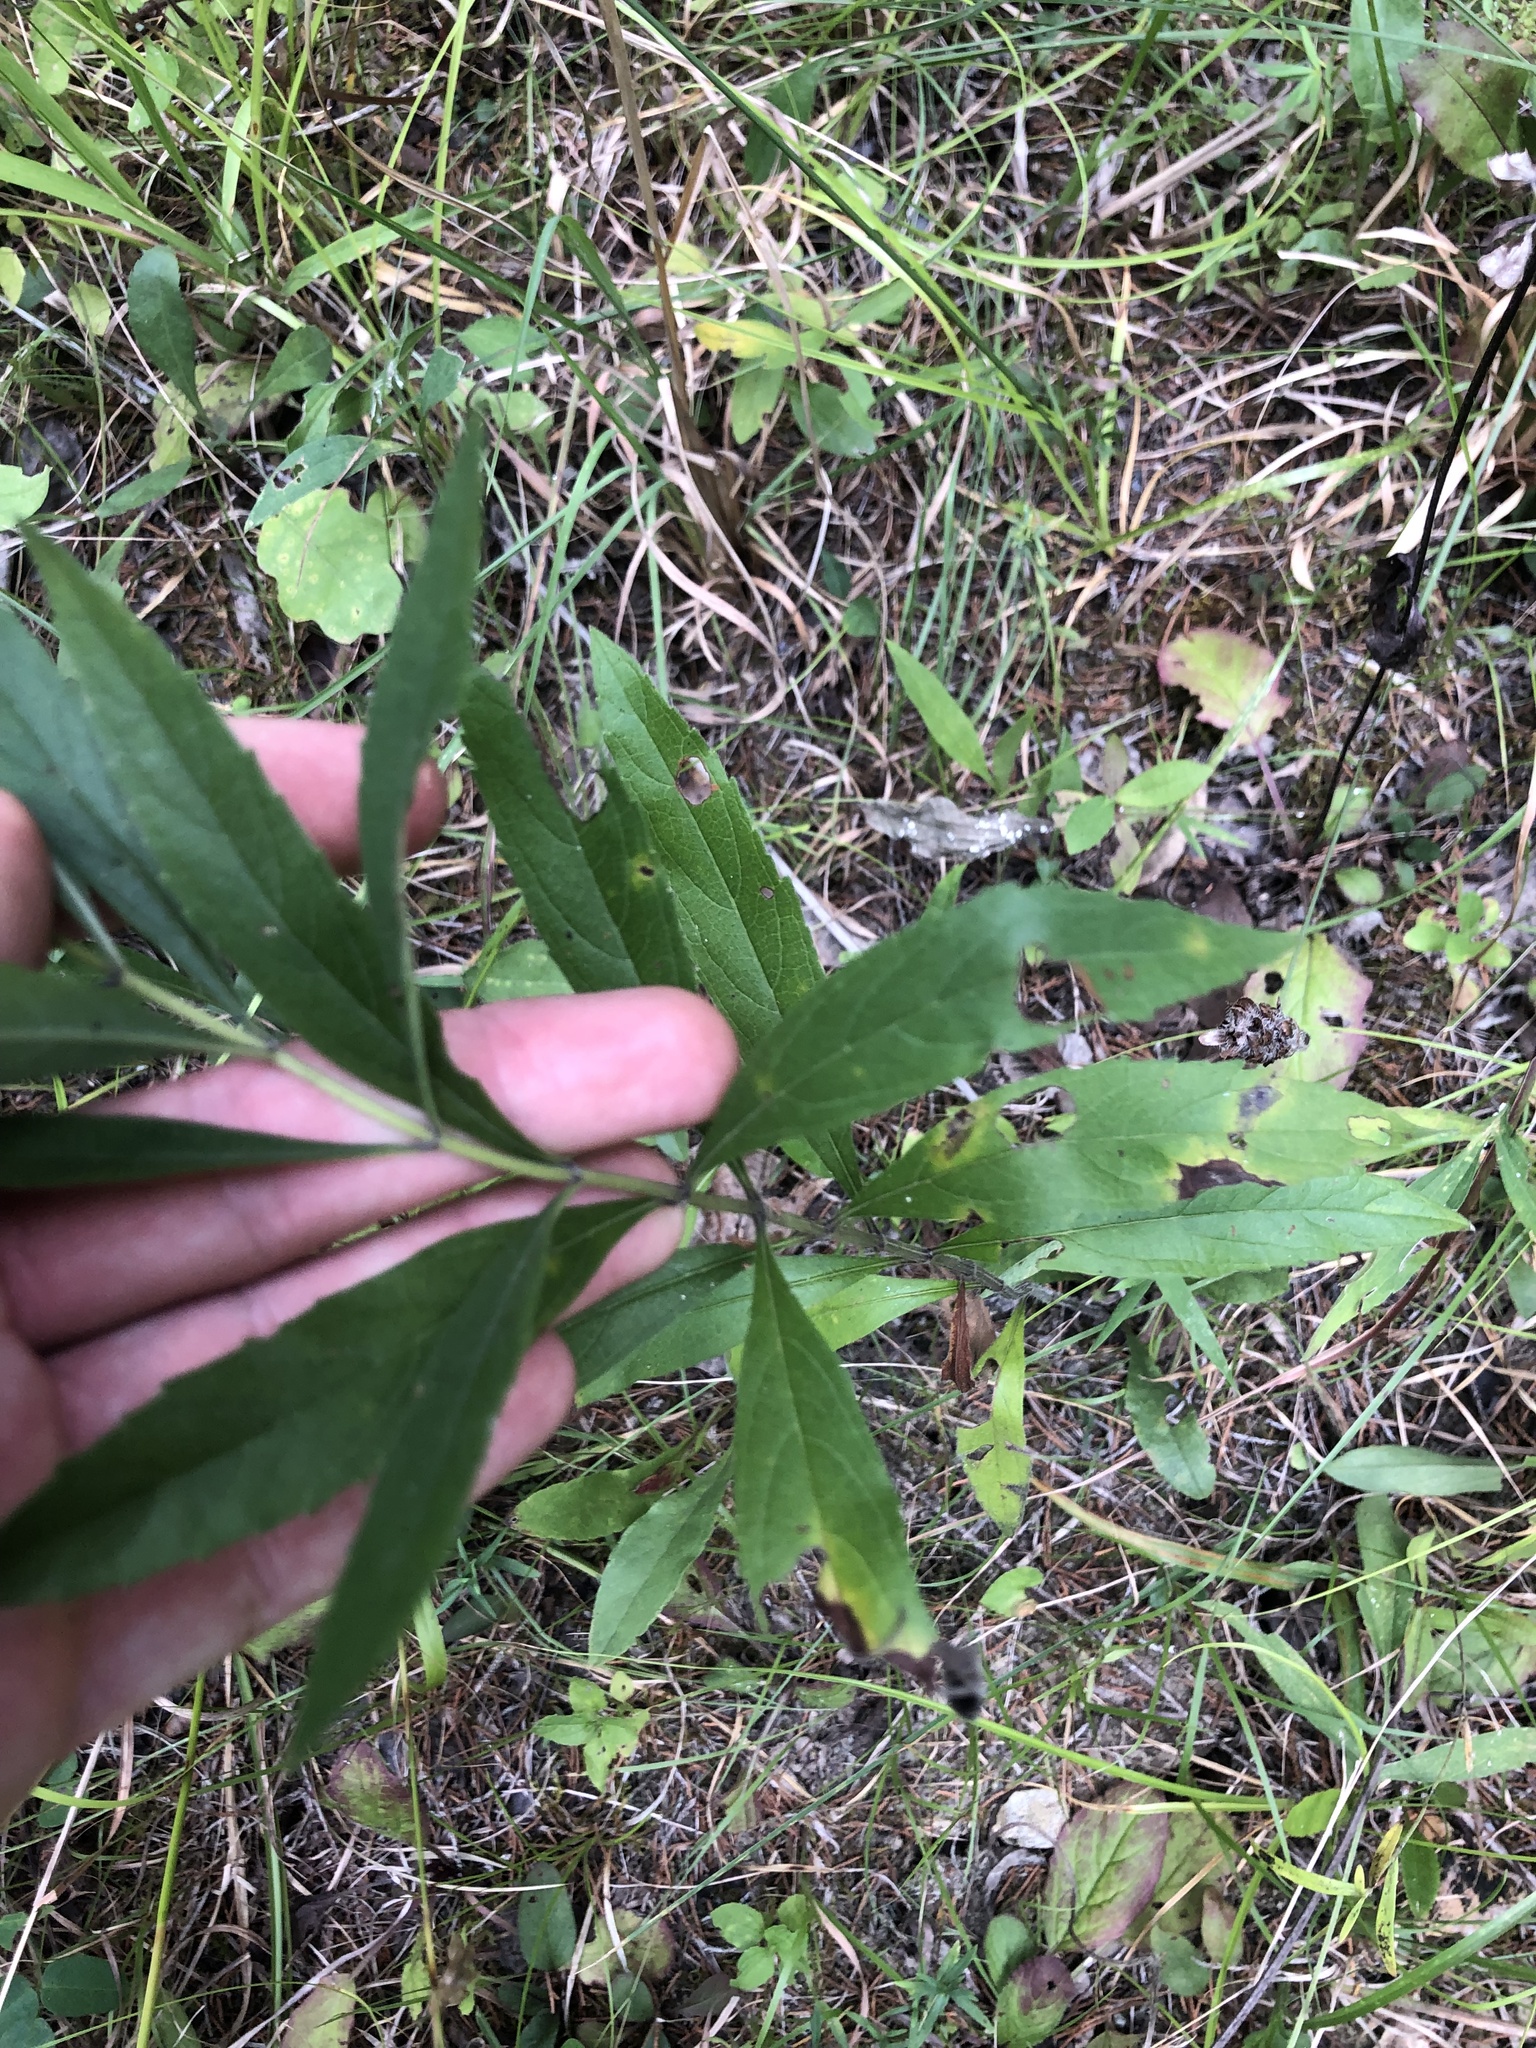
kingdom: Plantae
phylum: Tracheophyta
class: Magnoliopsida
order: Lamiales
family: Lamiaceae
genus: Salvia
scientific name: Salvia azurea
